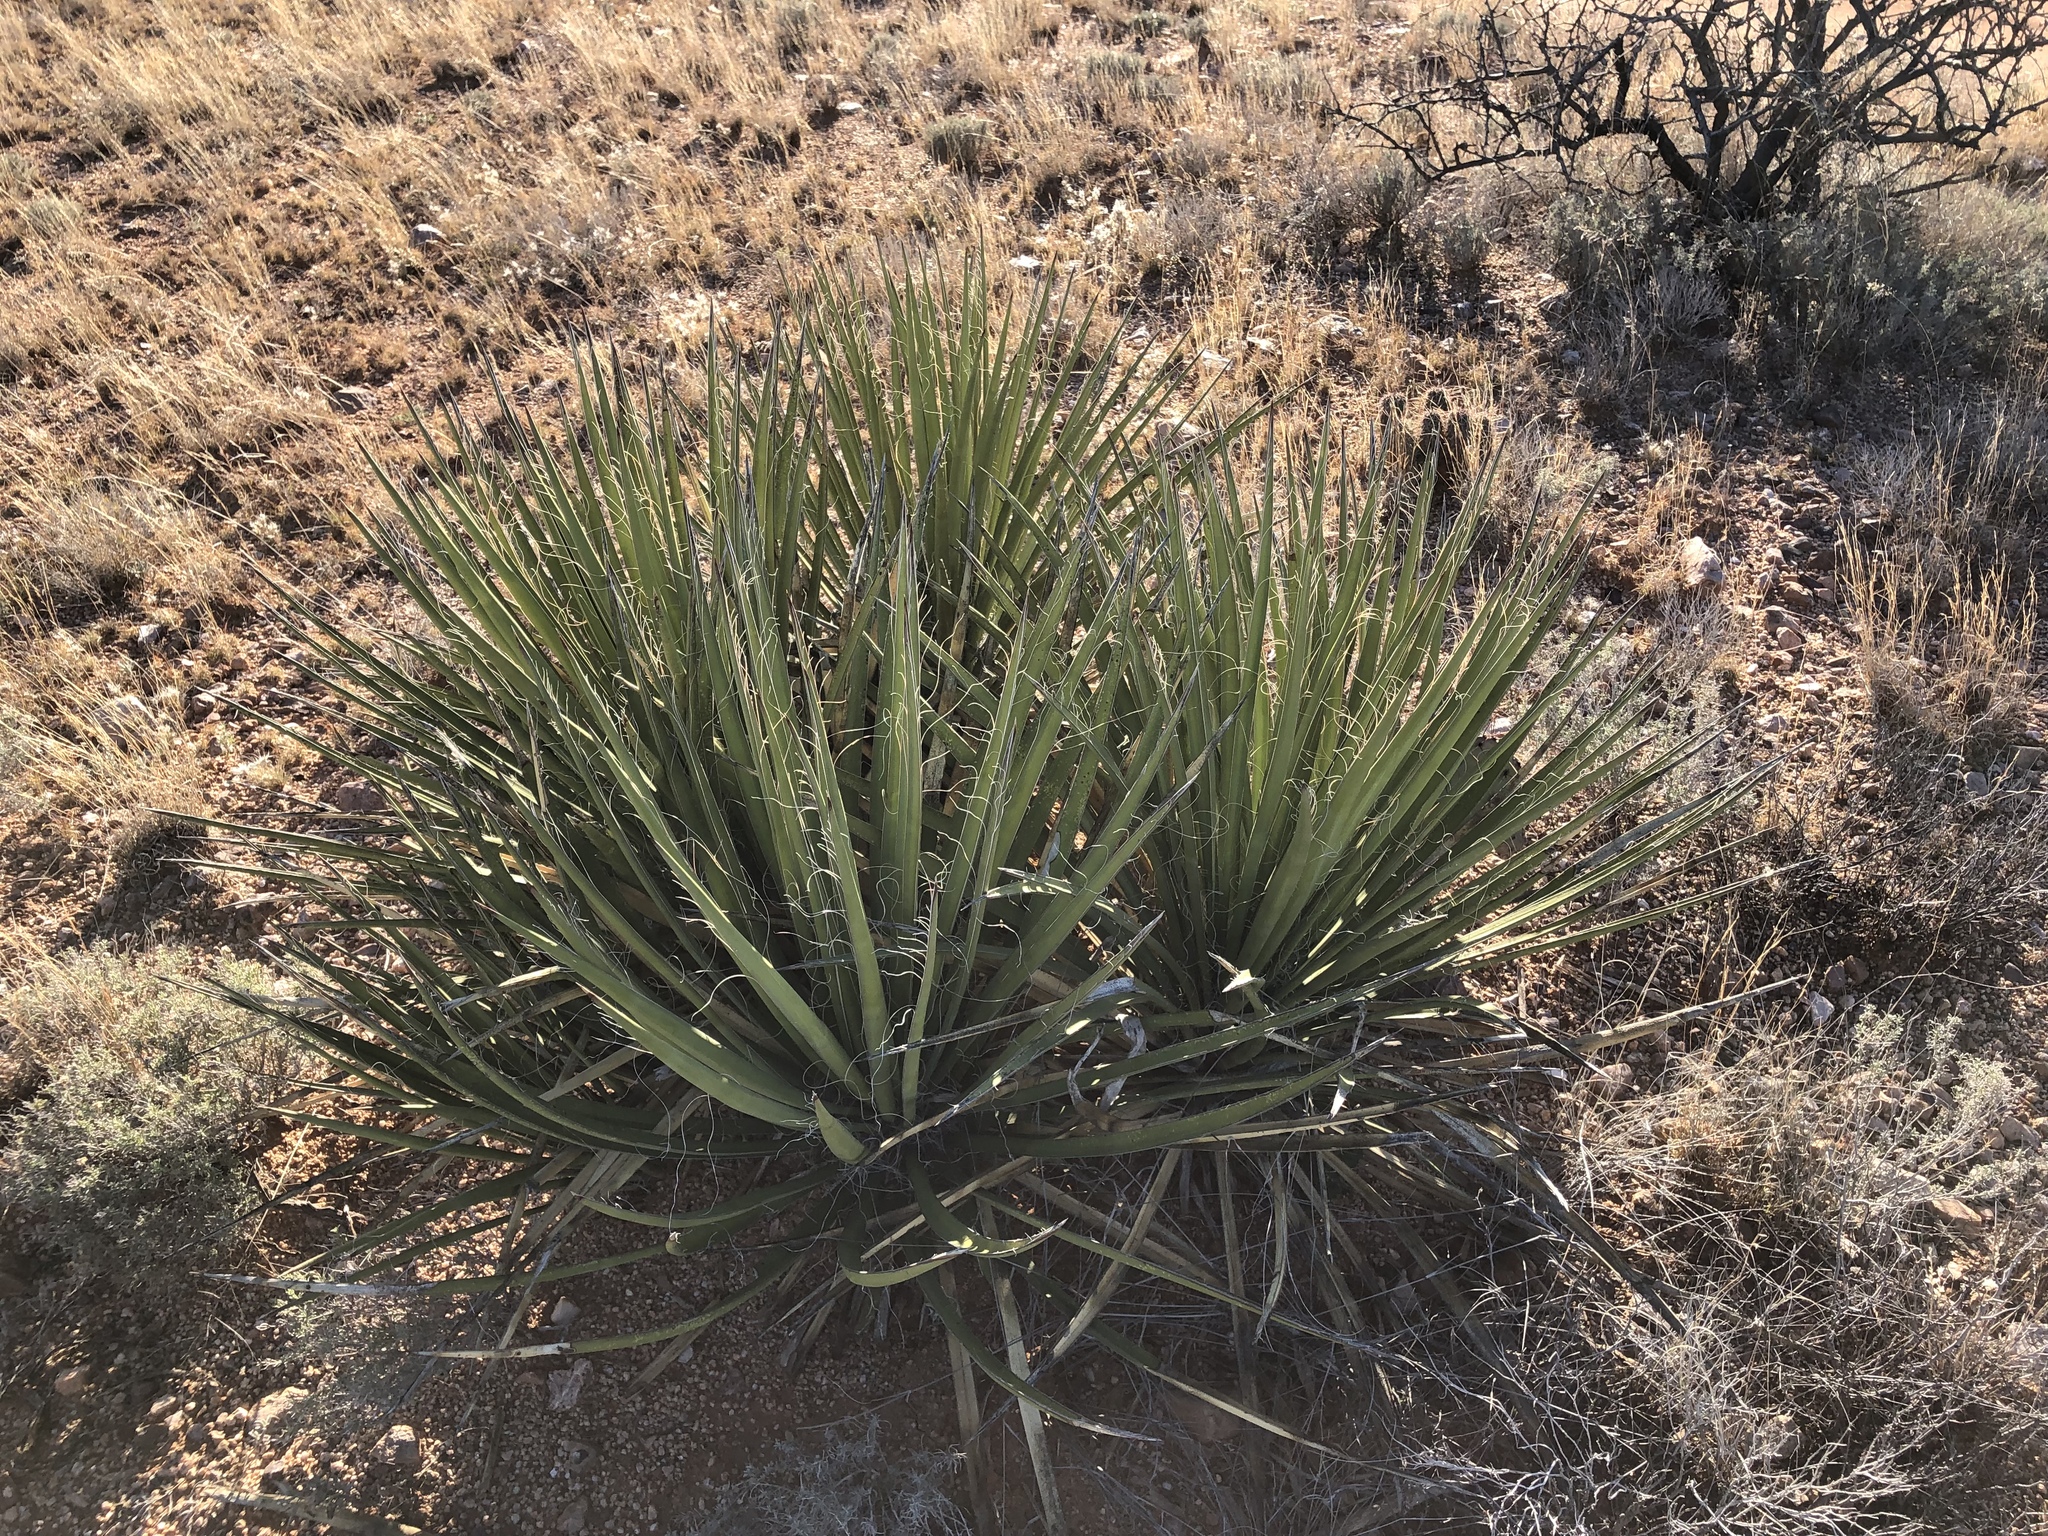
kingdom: Plantae
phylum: Tracheophyta
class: Liliopsida
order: Asparagales
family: Asparagaceae
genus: Yucca
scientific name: Yucca baccata
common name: Banana yucca
